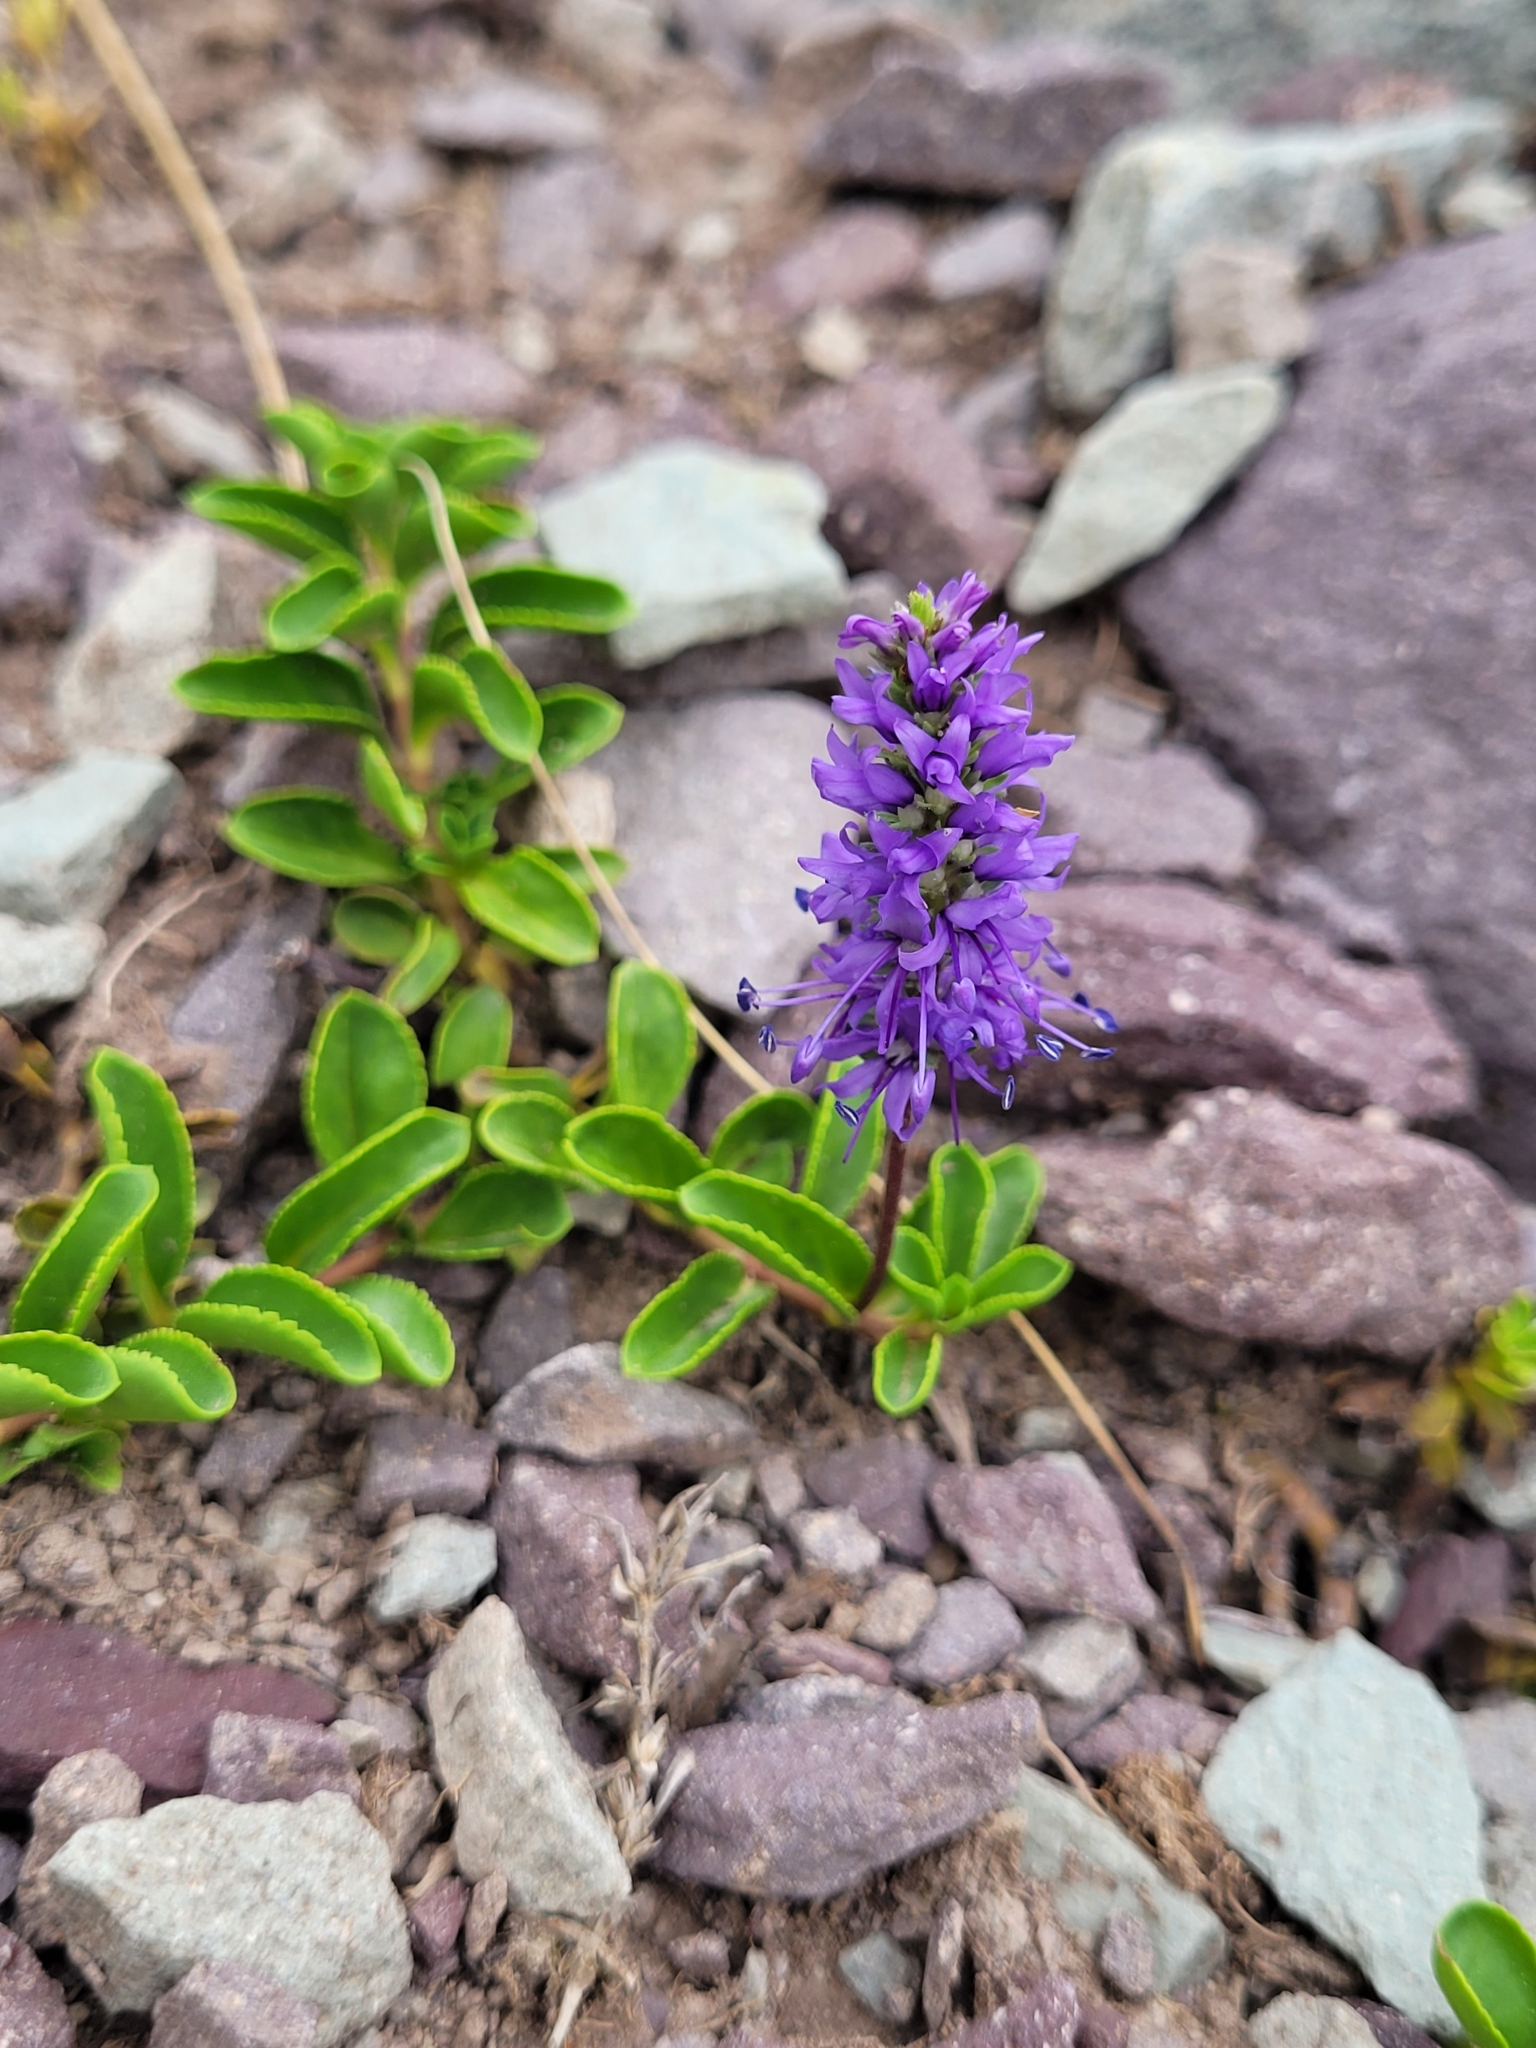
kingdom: Plantae
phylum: Tracheophyta
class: Magnoliopsida
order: Lamiales
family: Plantaginaceae
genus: Veronica
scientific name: Veronica allionii
